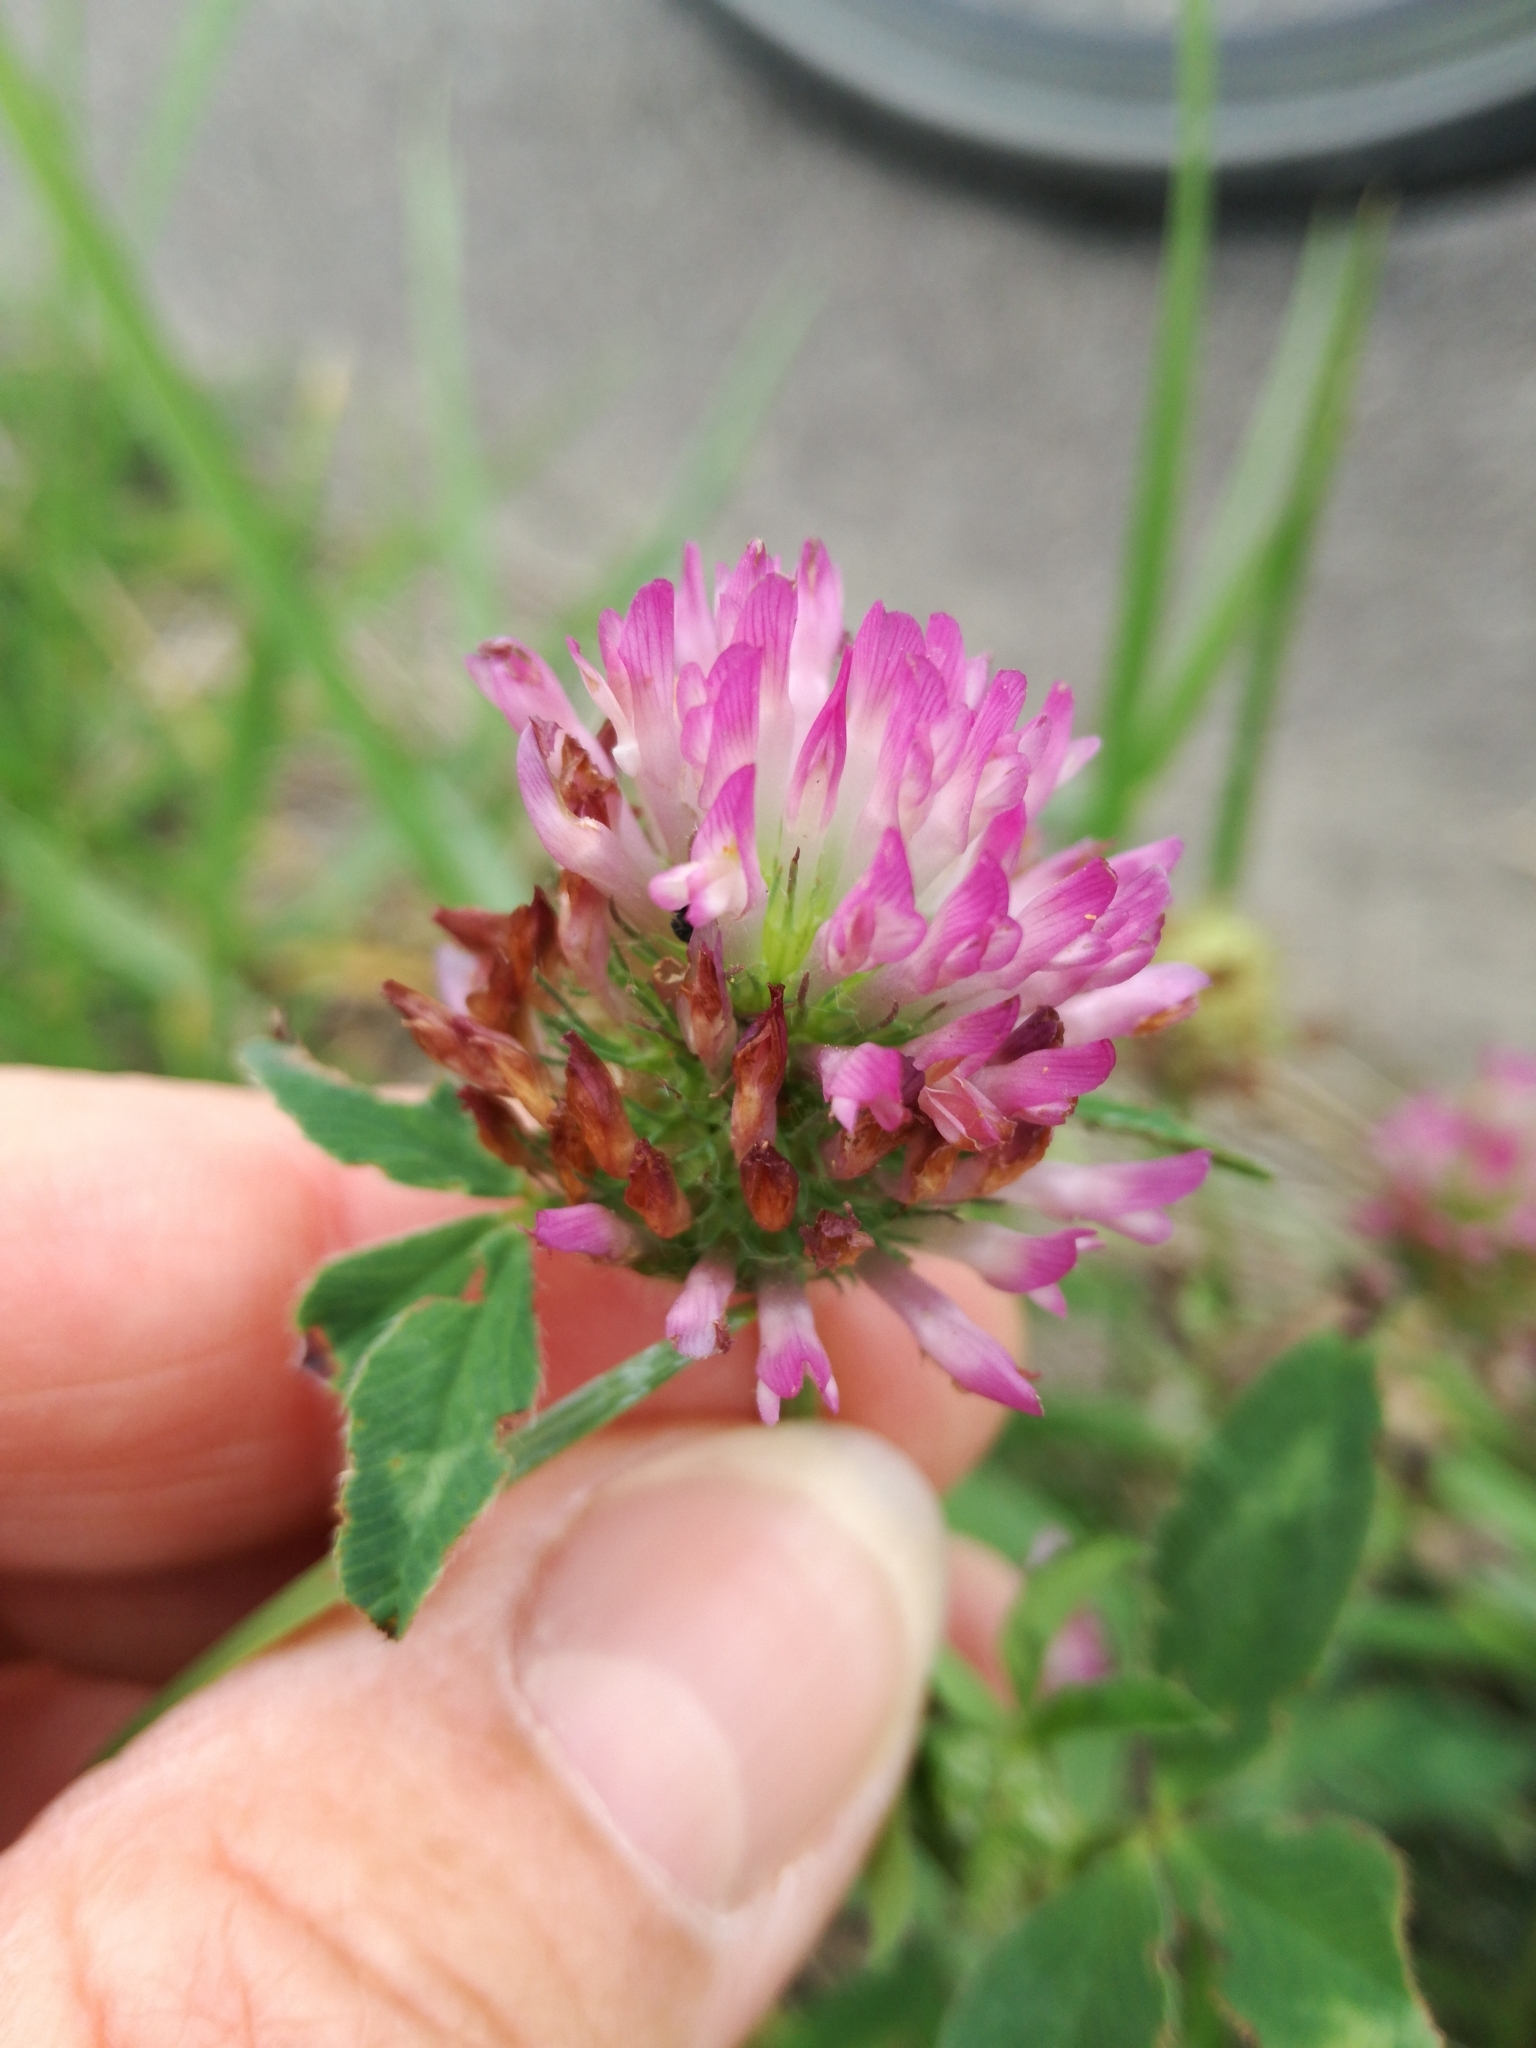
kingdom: Plantae
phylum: Tracheophyta
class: Magnoliopsida
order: Fabales
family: Fabaceae
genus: Trifolium
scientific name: Trifolium pratense
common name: Red clover
